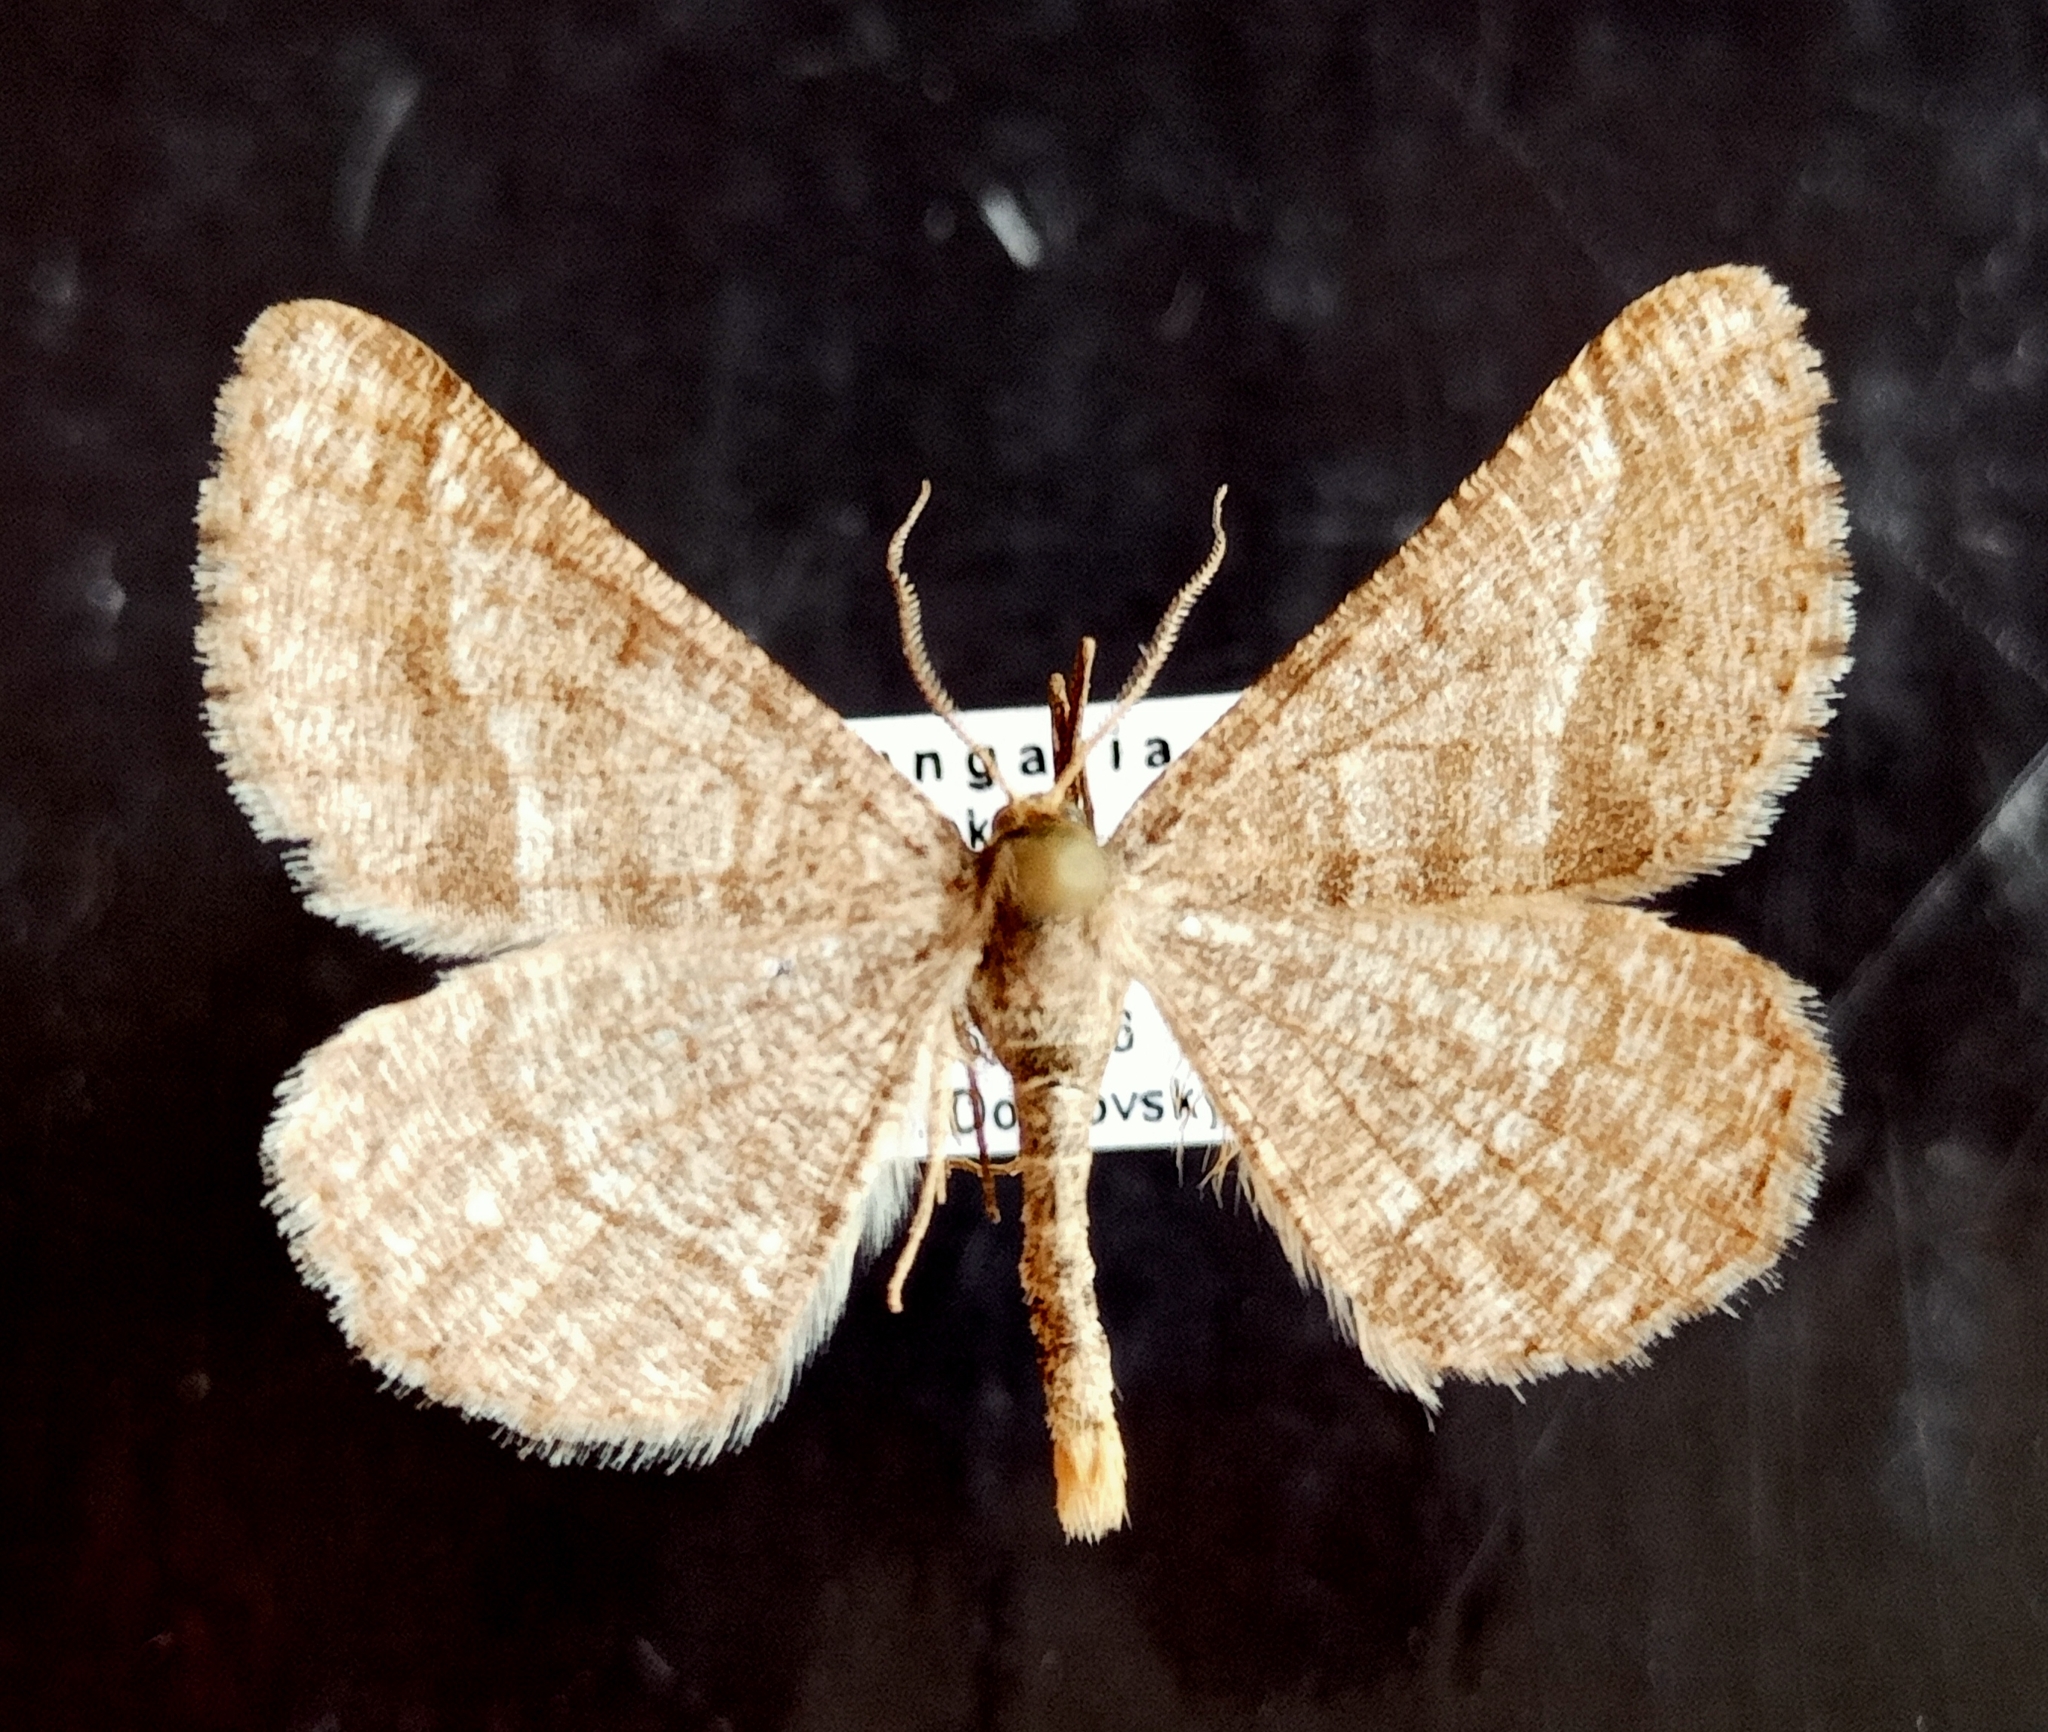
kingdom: Animalia
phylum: Arthropoda
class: Insecta
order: Lepidoptera
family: Geometridae
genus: Tephrina
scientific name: Tephrina murinaria
